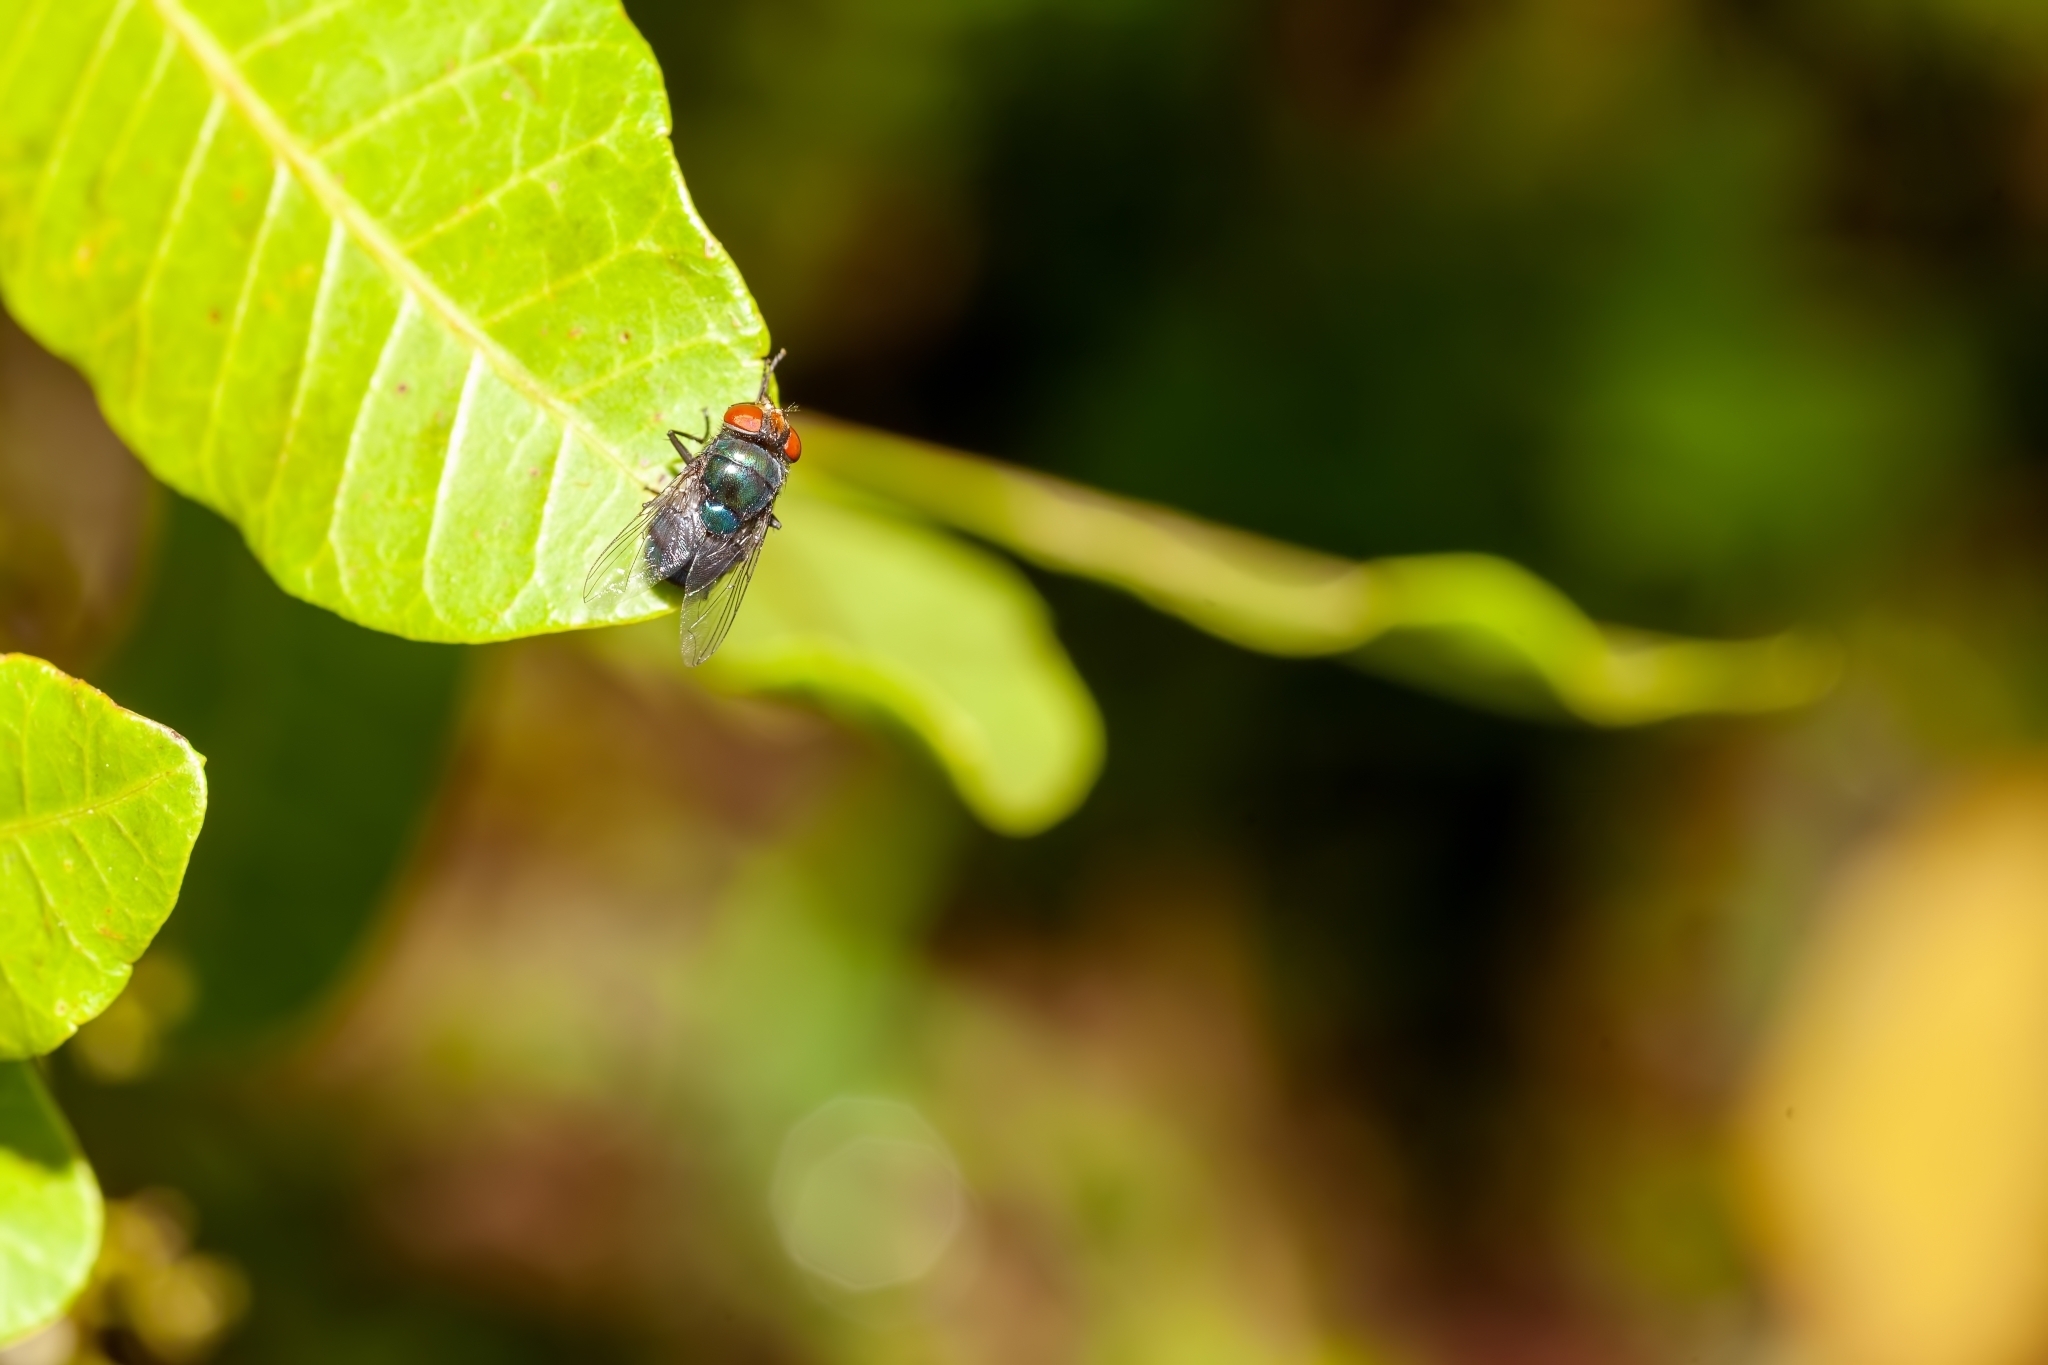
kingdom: Animalia
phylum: Arthropoda
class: Insecta
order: Diptera
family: Calliphoridae
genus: Chrysomya
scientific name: Chrysomya megacephala
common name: Blow fly
